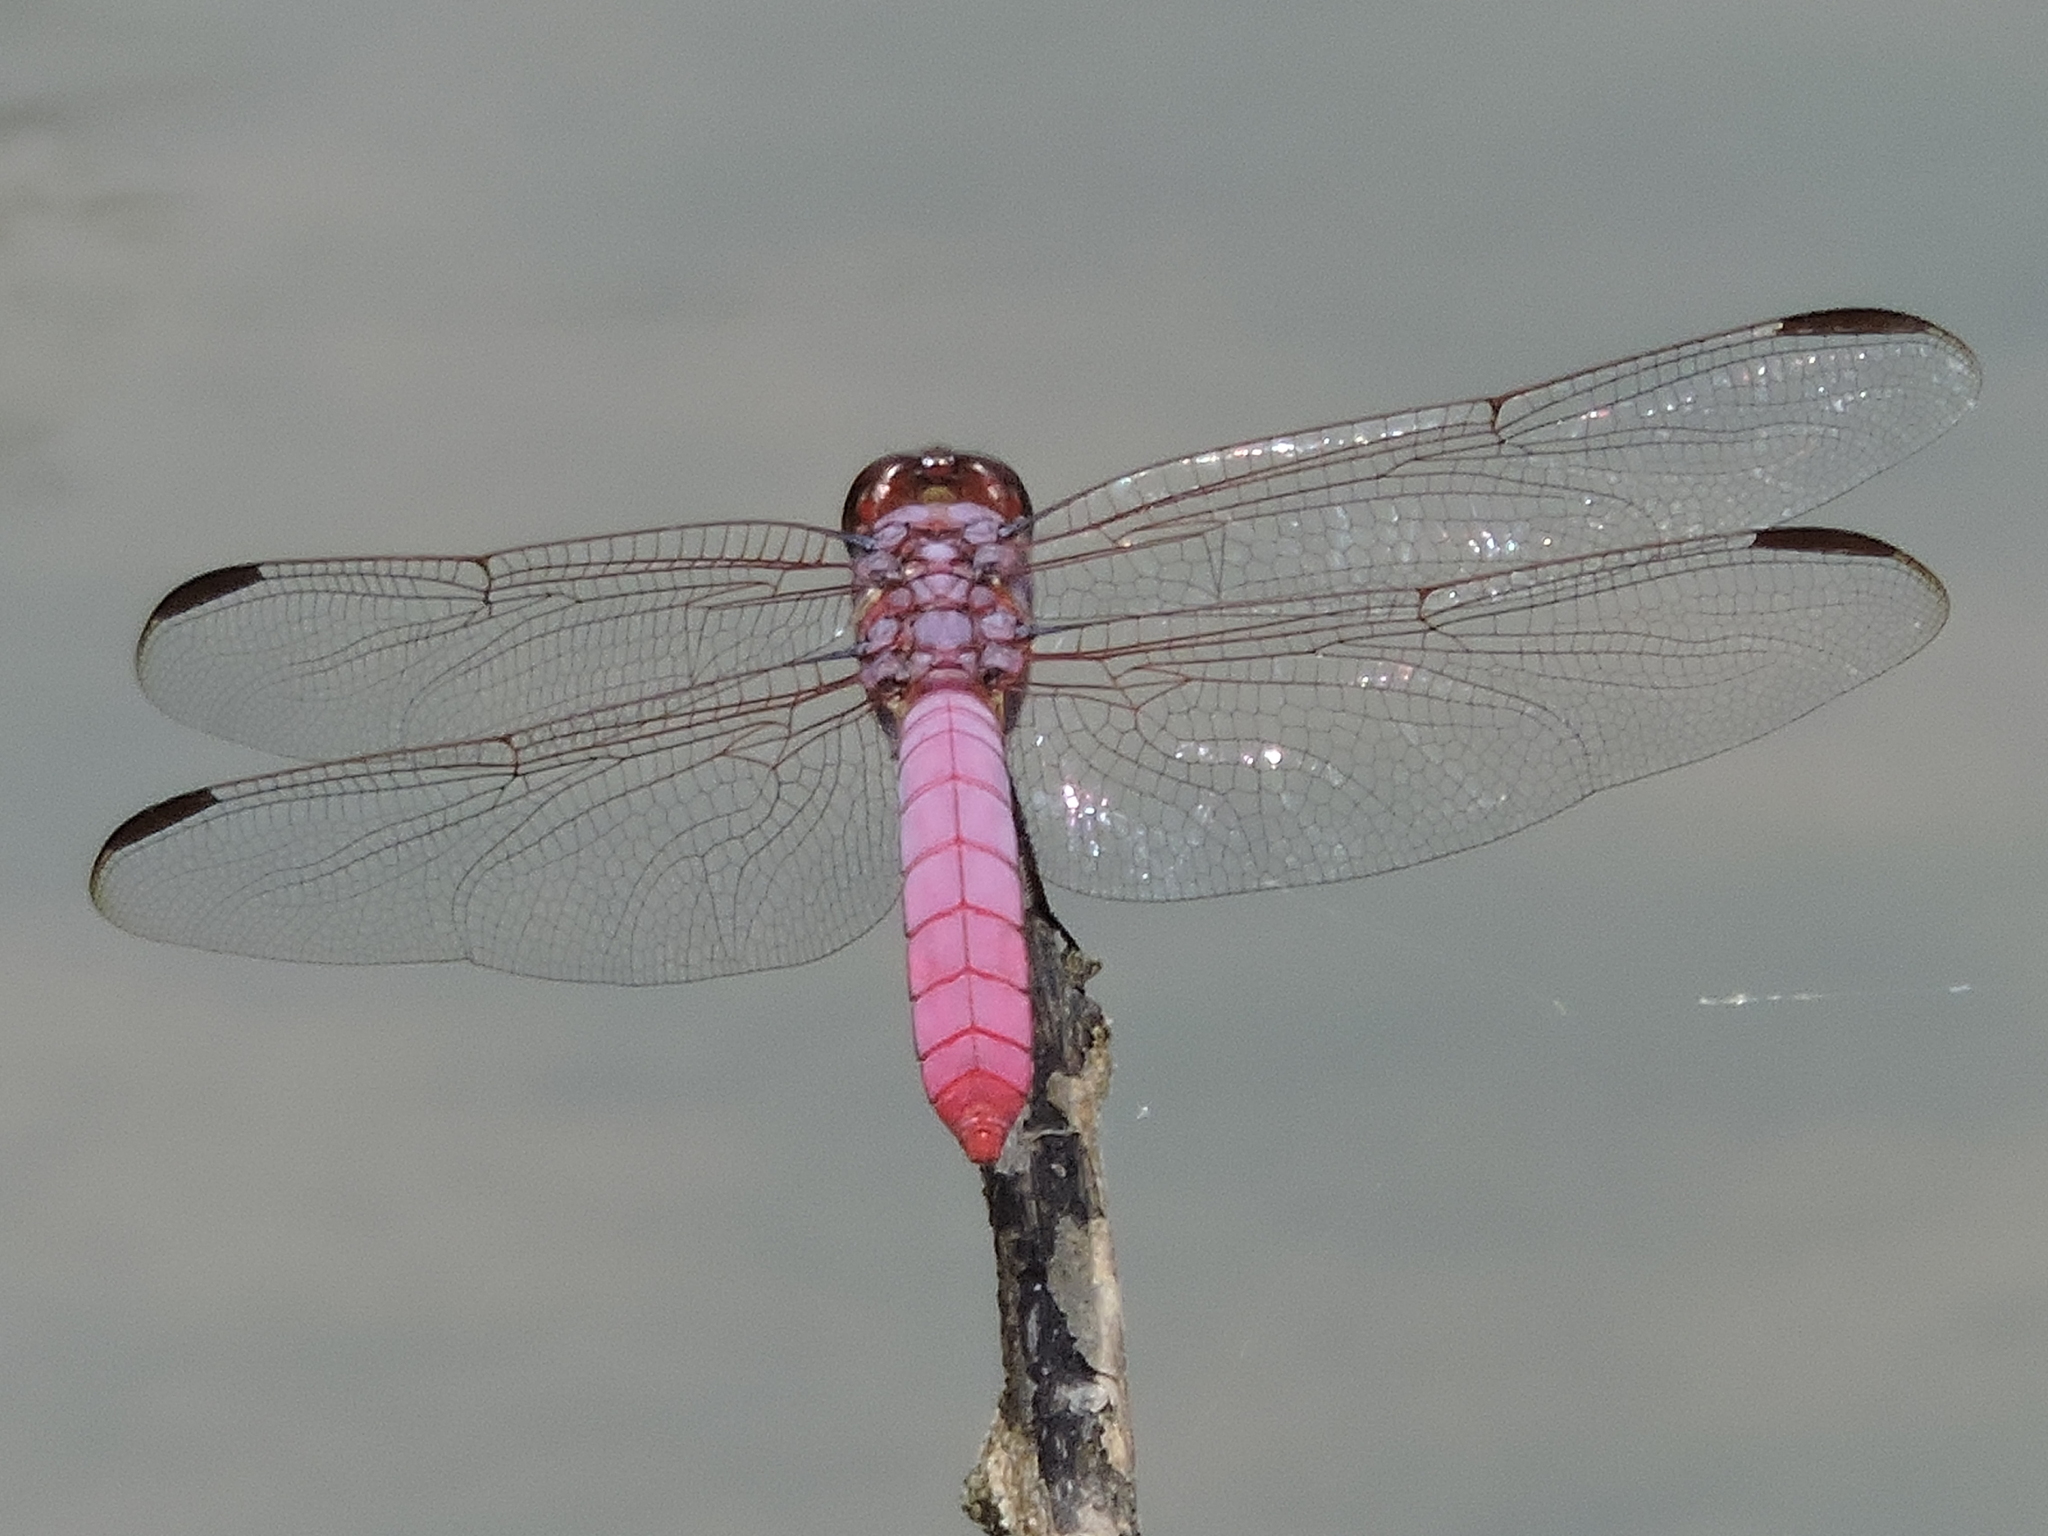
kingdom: Animalia
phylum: Arthropoda
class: Insecta
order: Odonata
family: Libellulidae
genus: Orthemis
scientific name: Orthemis ferruginea
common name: Roseate skimmer
